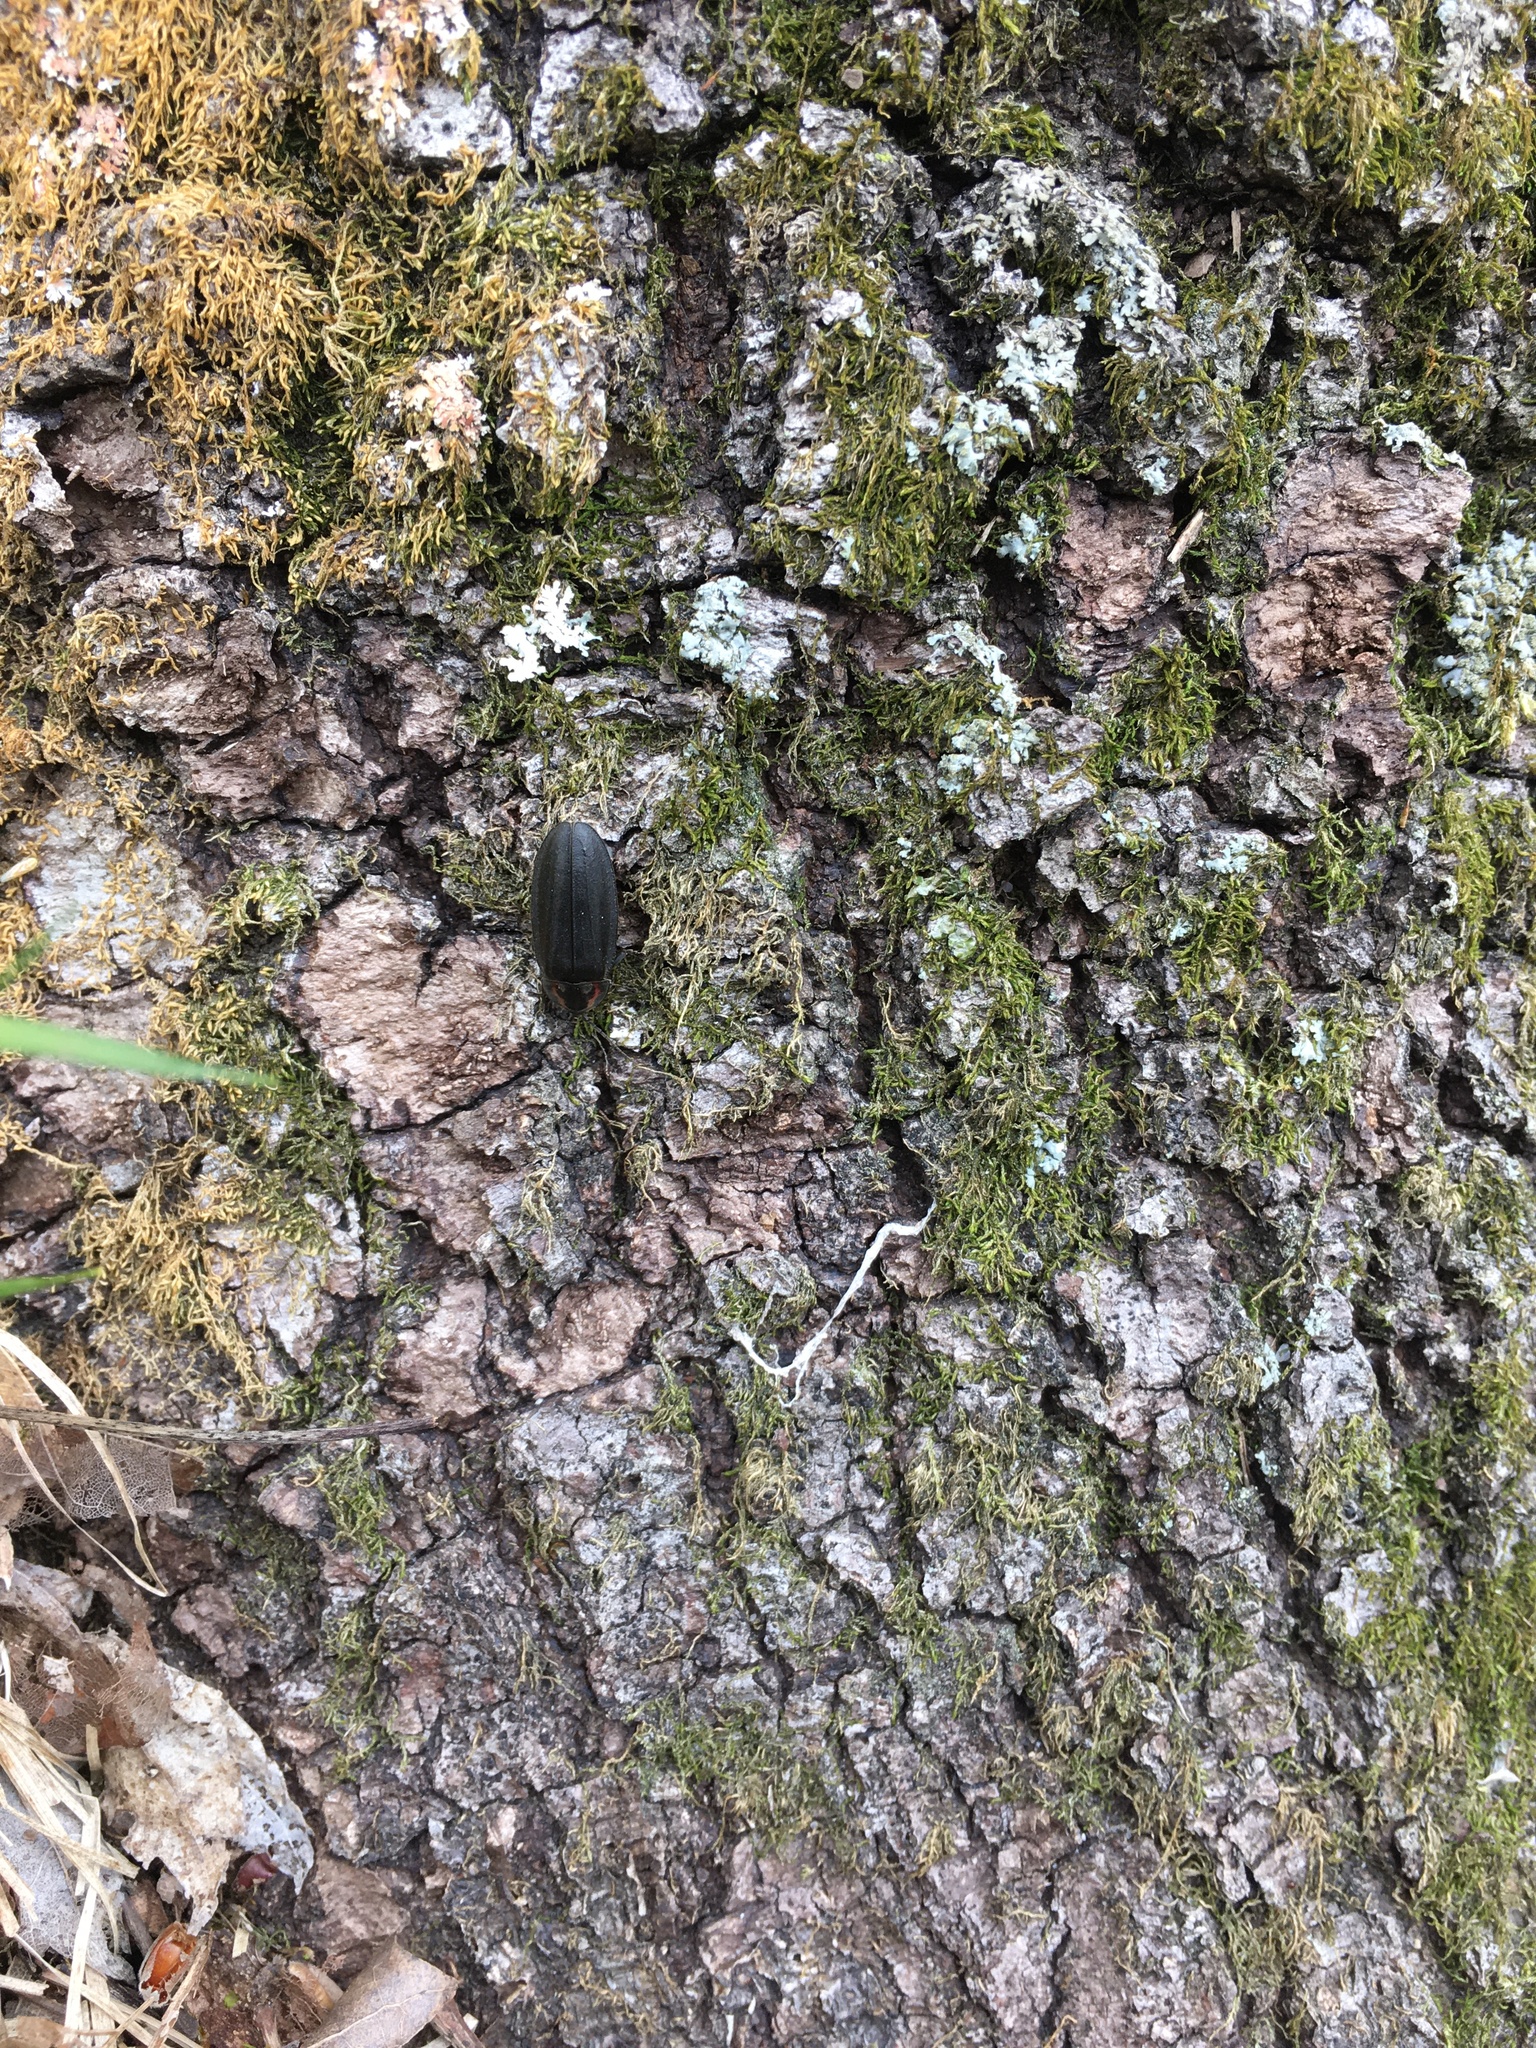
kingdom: Animalia
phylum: Arthropoda
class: Insecta
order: Coleoptera
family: Lampyridae
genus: Photinus
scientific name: Photinus corrusca
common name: Winter firefly
